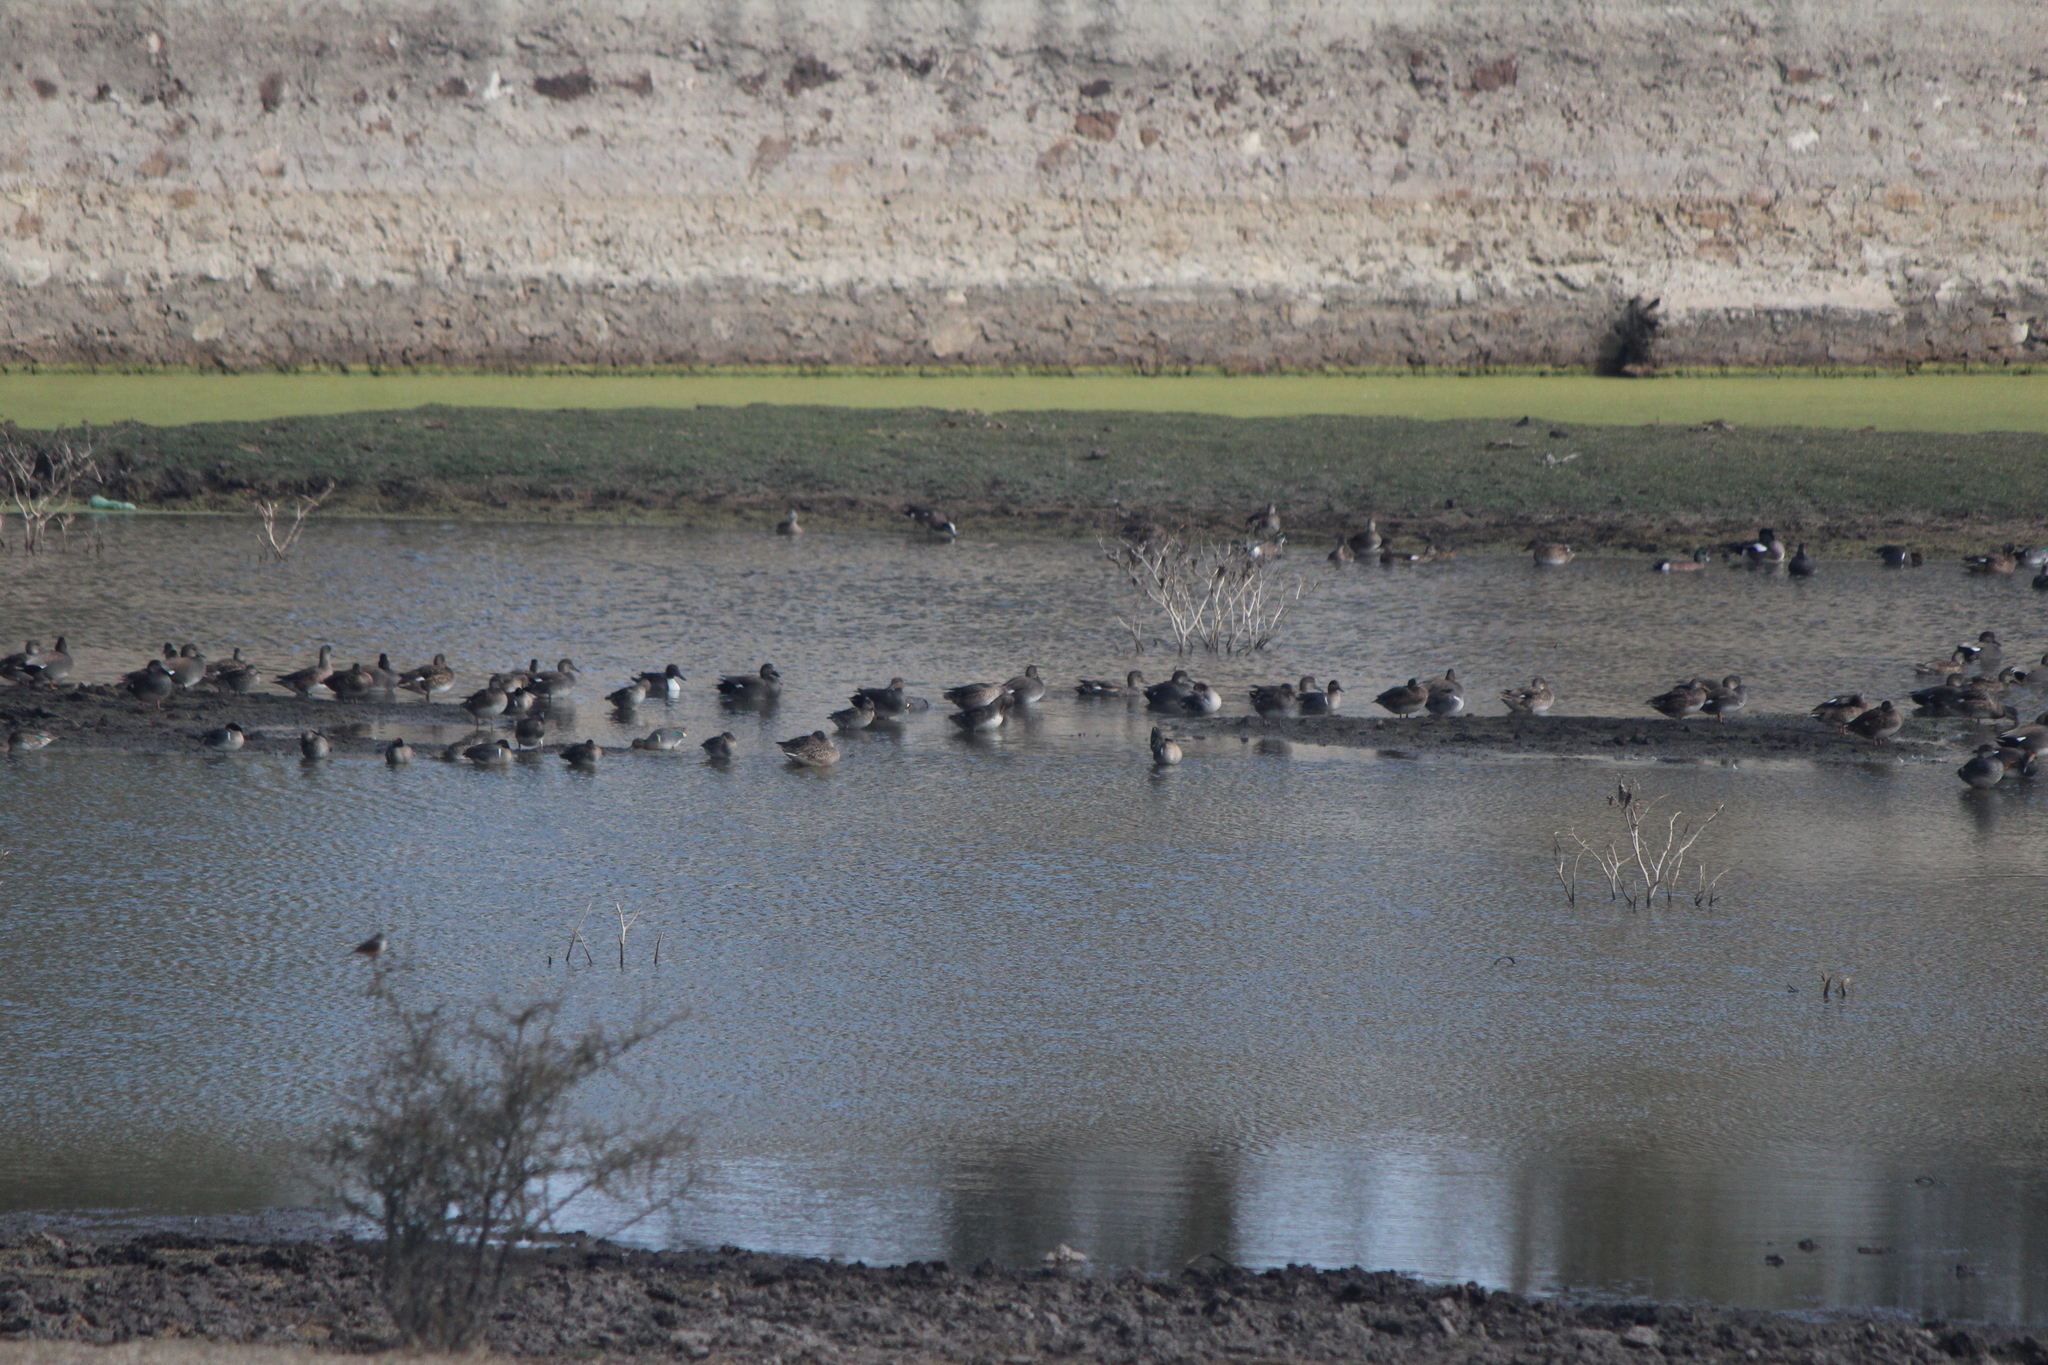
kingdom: Animalia
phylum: Chordata
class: Aves
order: Anseriformes
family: Anatidae
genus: Mareca
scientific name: Mareca strepera
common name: Gadwall
